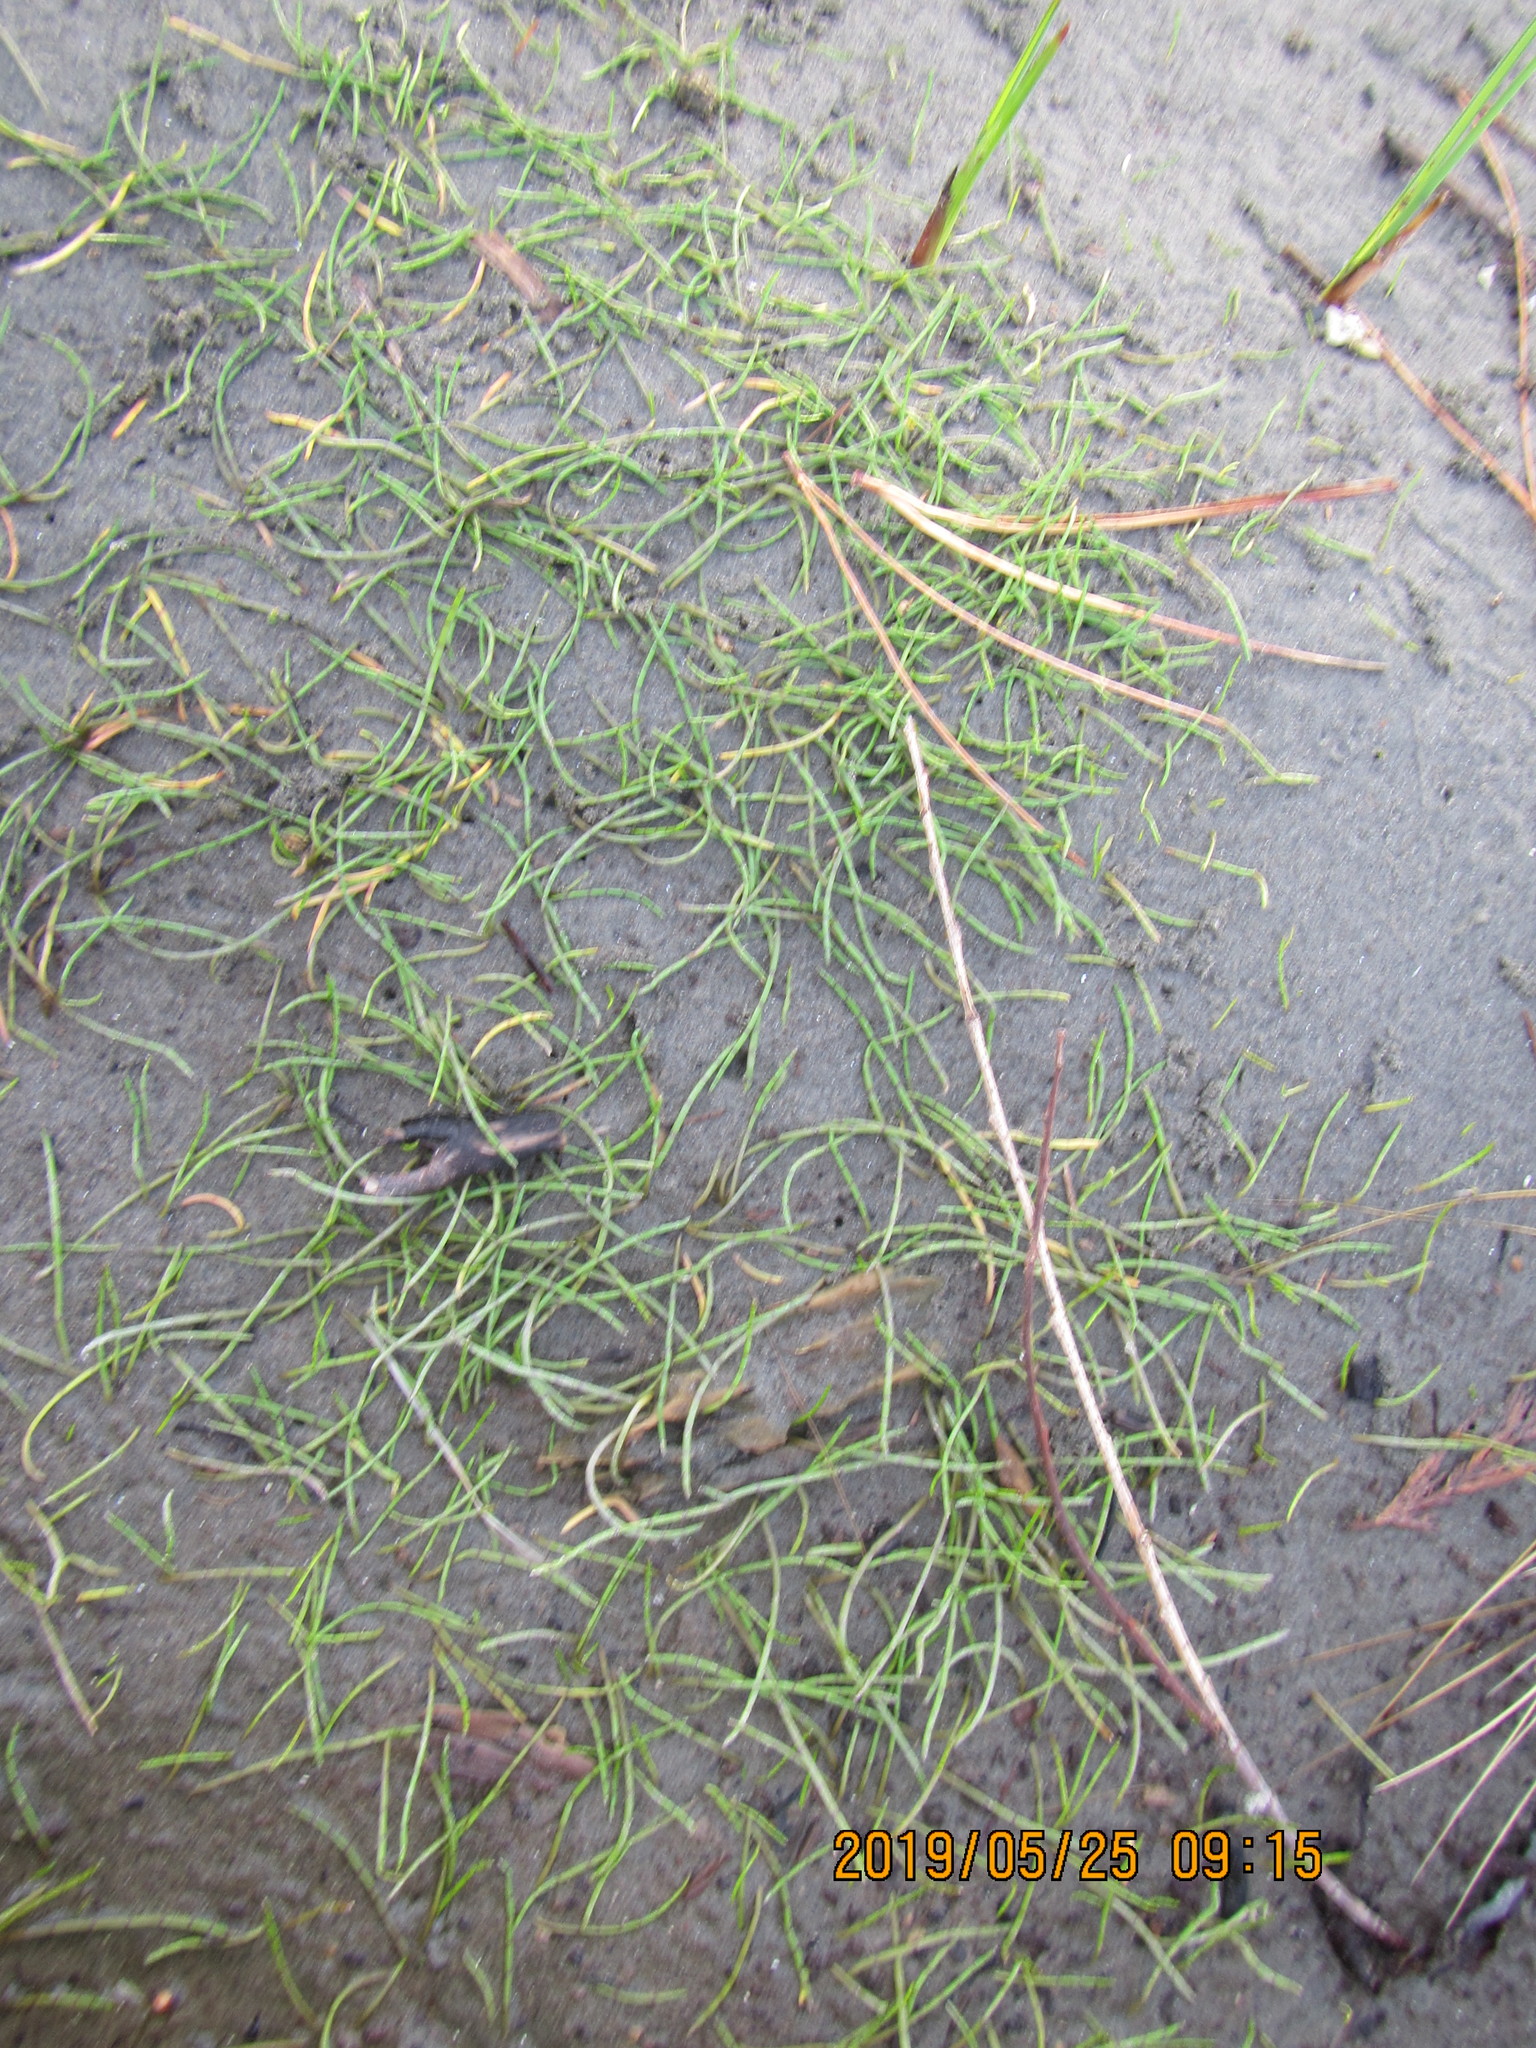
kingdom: Plantae
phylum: Tracheophyta
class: Magnoliopsida
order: Apiales
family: Apiaceae
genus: Lilaeopsis
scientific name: Lilaeopsis novae-zelandiae
